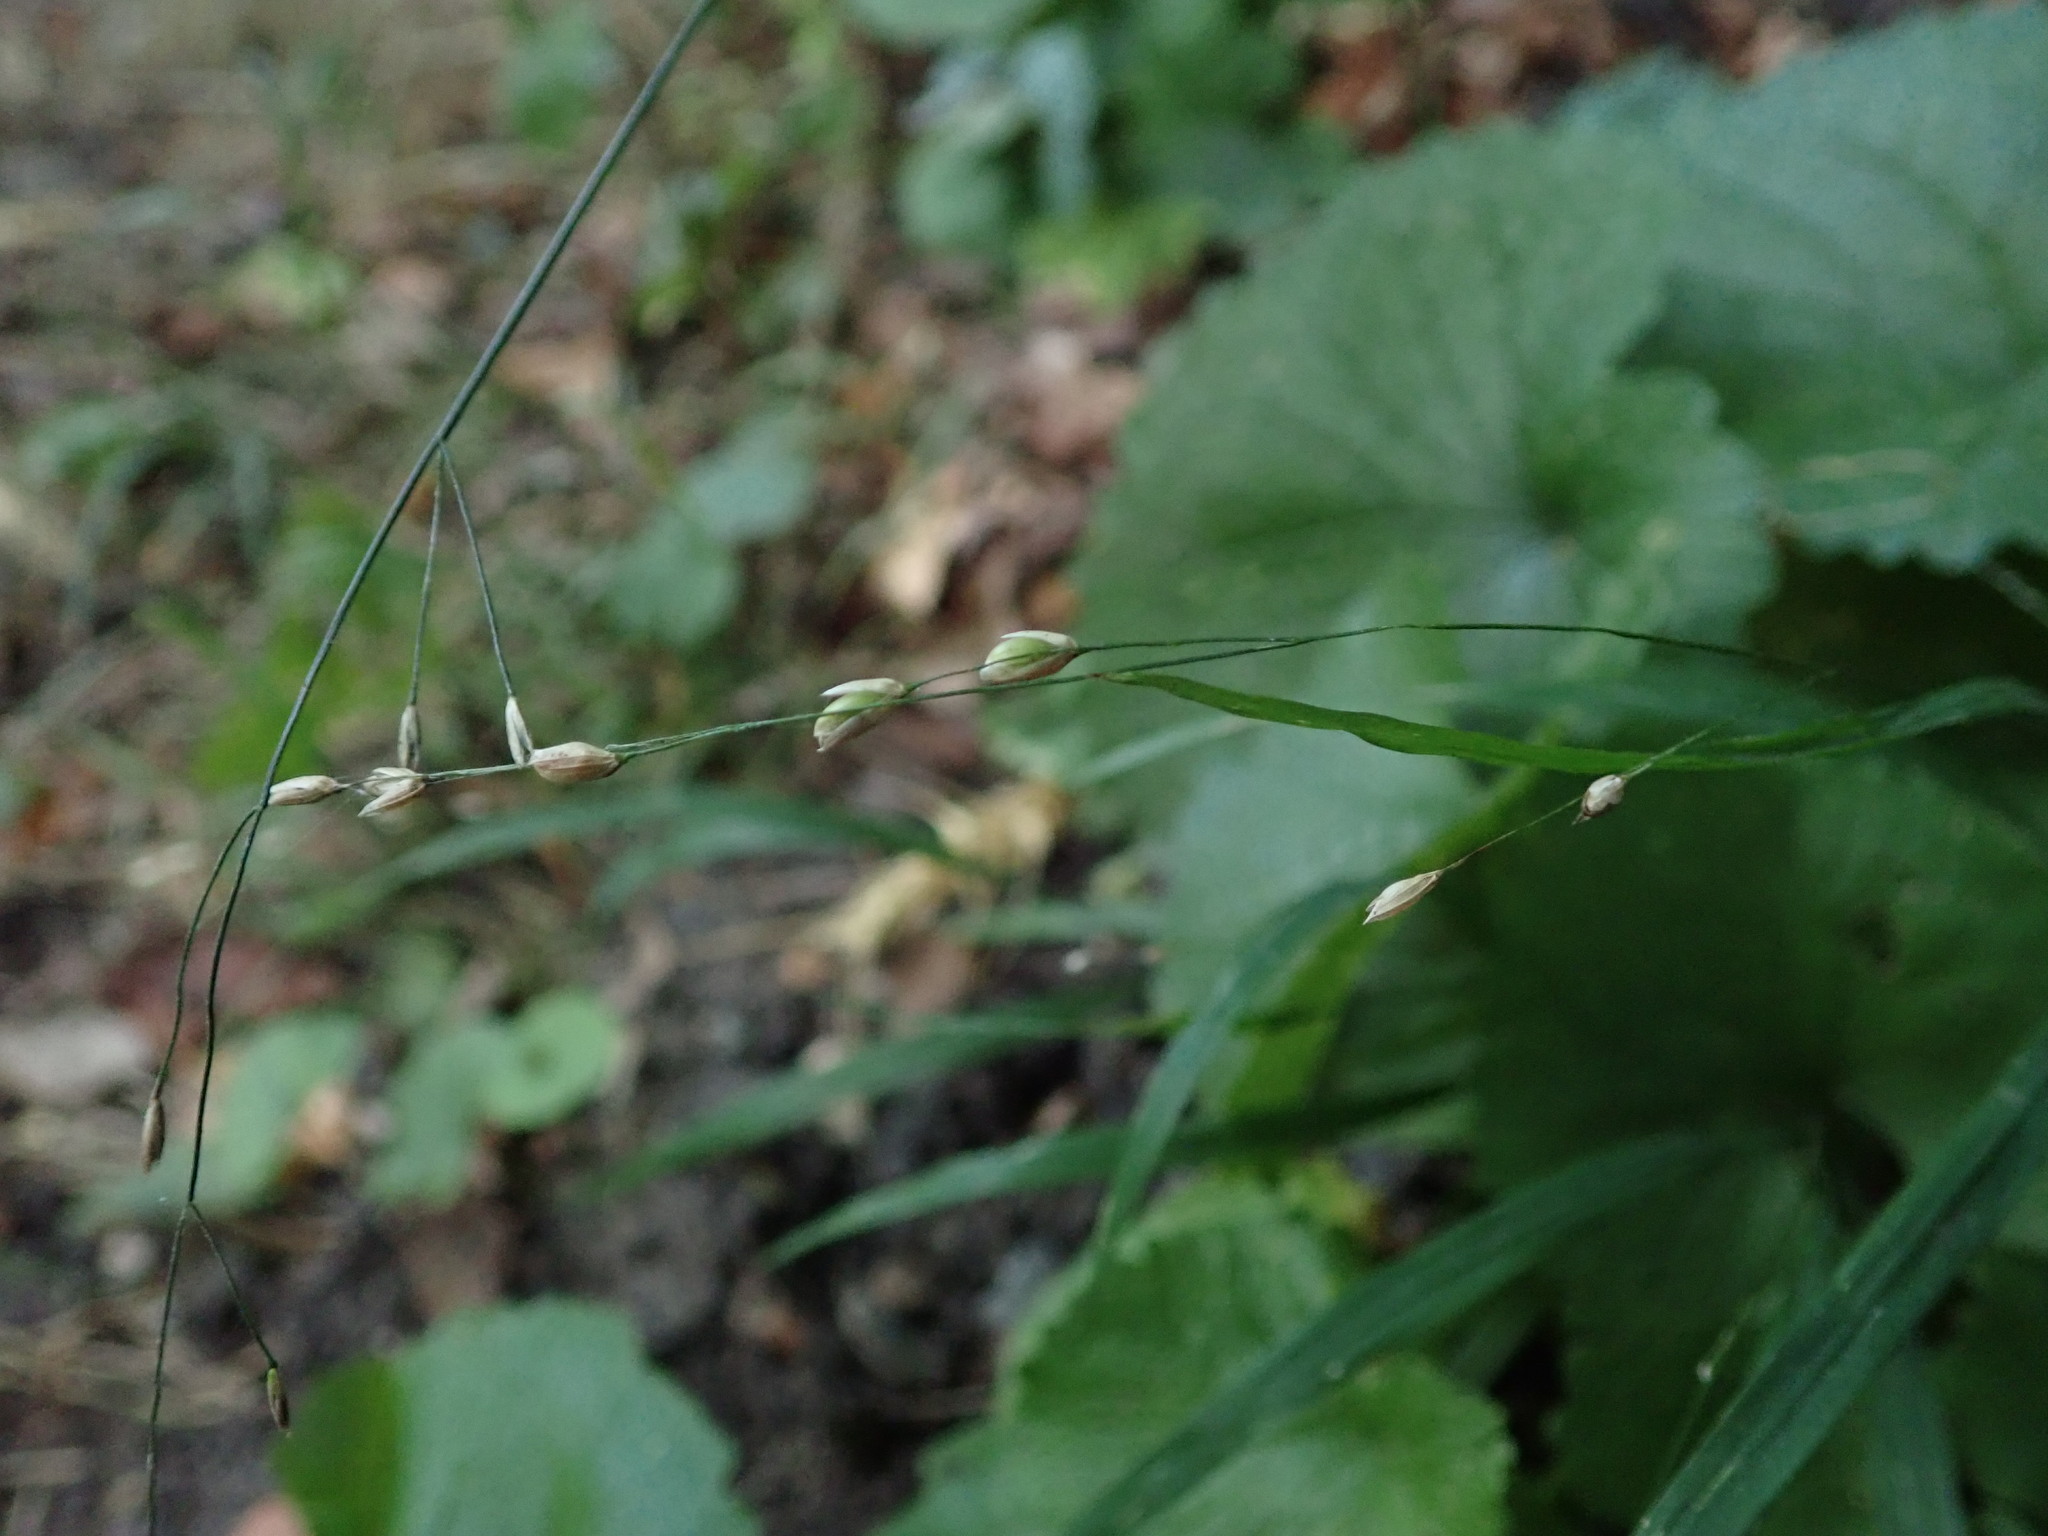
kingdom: Plantae
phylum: Tracheophyta
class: Liliopsida
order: Poales
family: Poaceae
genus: Melica
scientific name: Melica uniflora
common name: Wood melick
